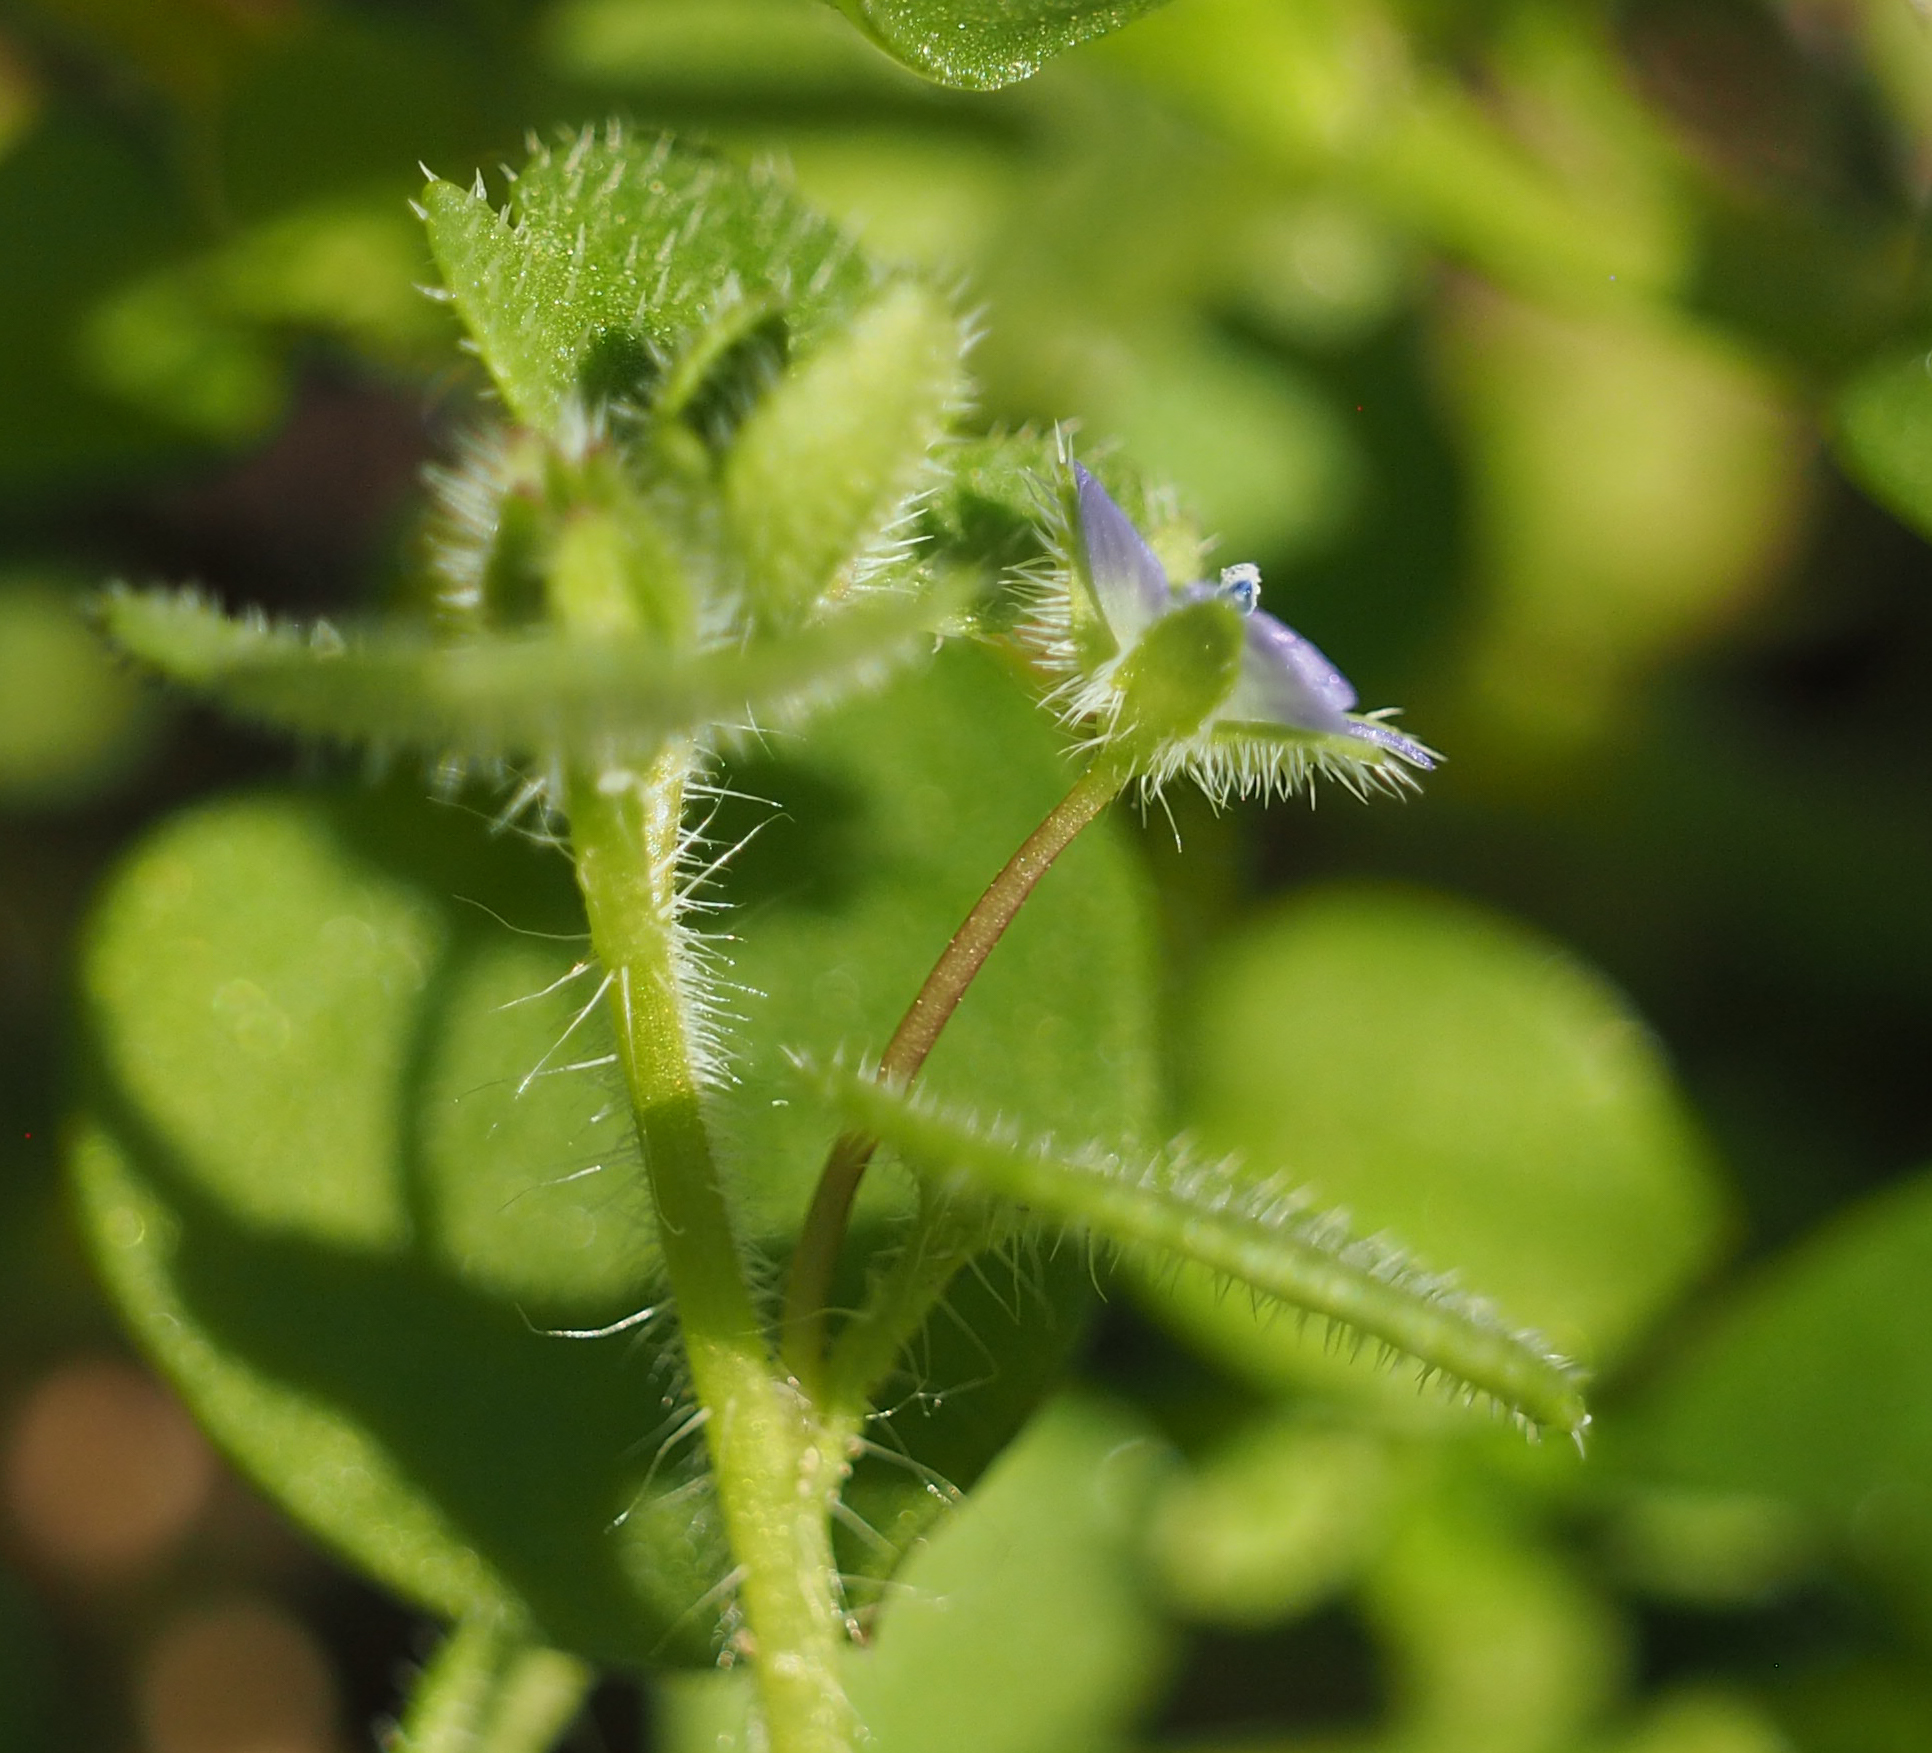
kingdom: Plantae
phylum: Tracheophyta
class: Magnoliopsida
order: Lamiales
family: Plantaginaceae
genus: Veronica
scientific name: Veronica hederifolia
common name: Ivy-leaved speedwell
